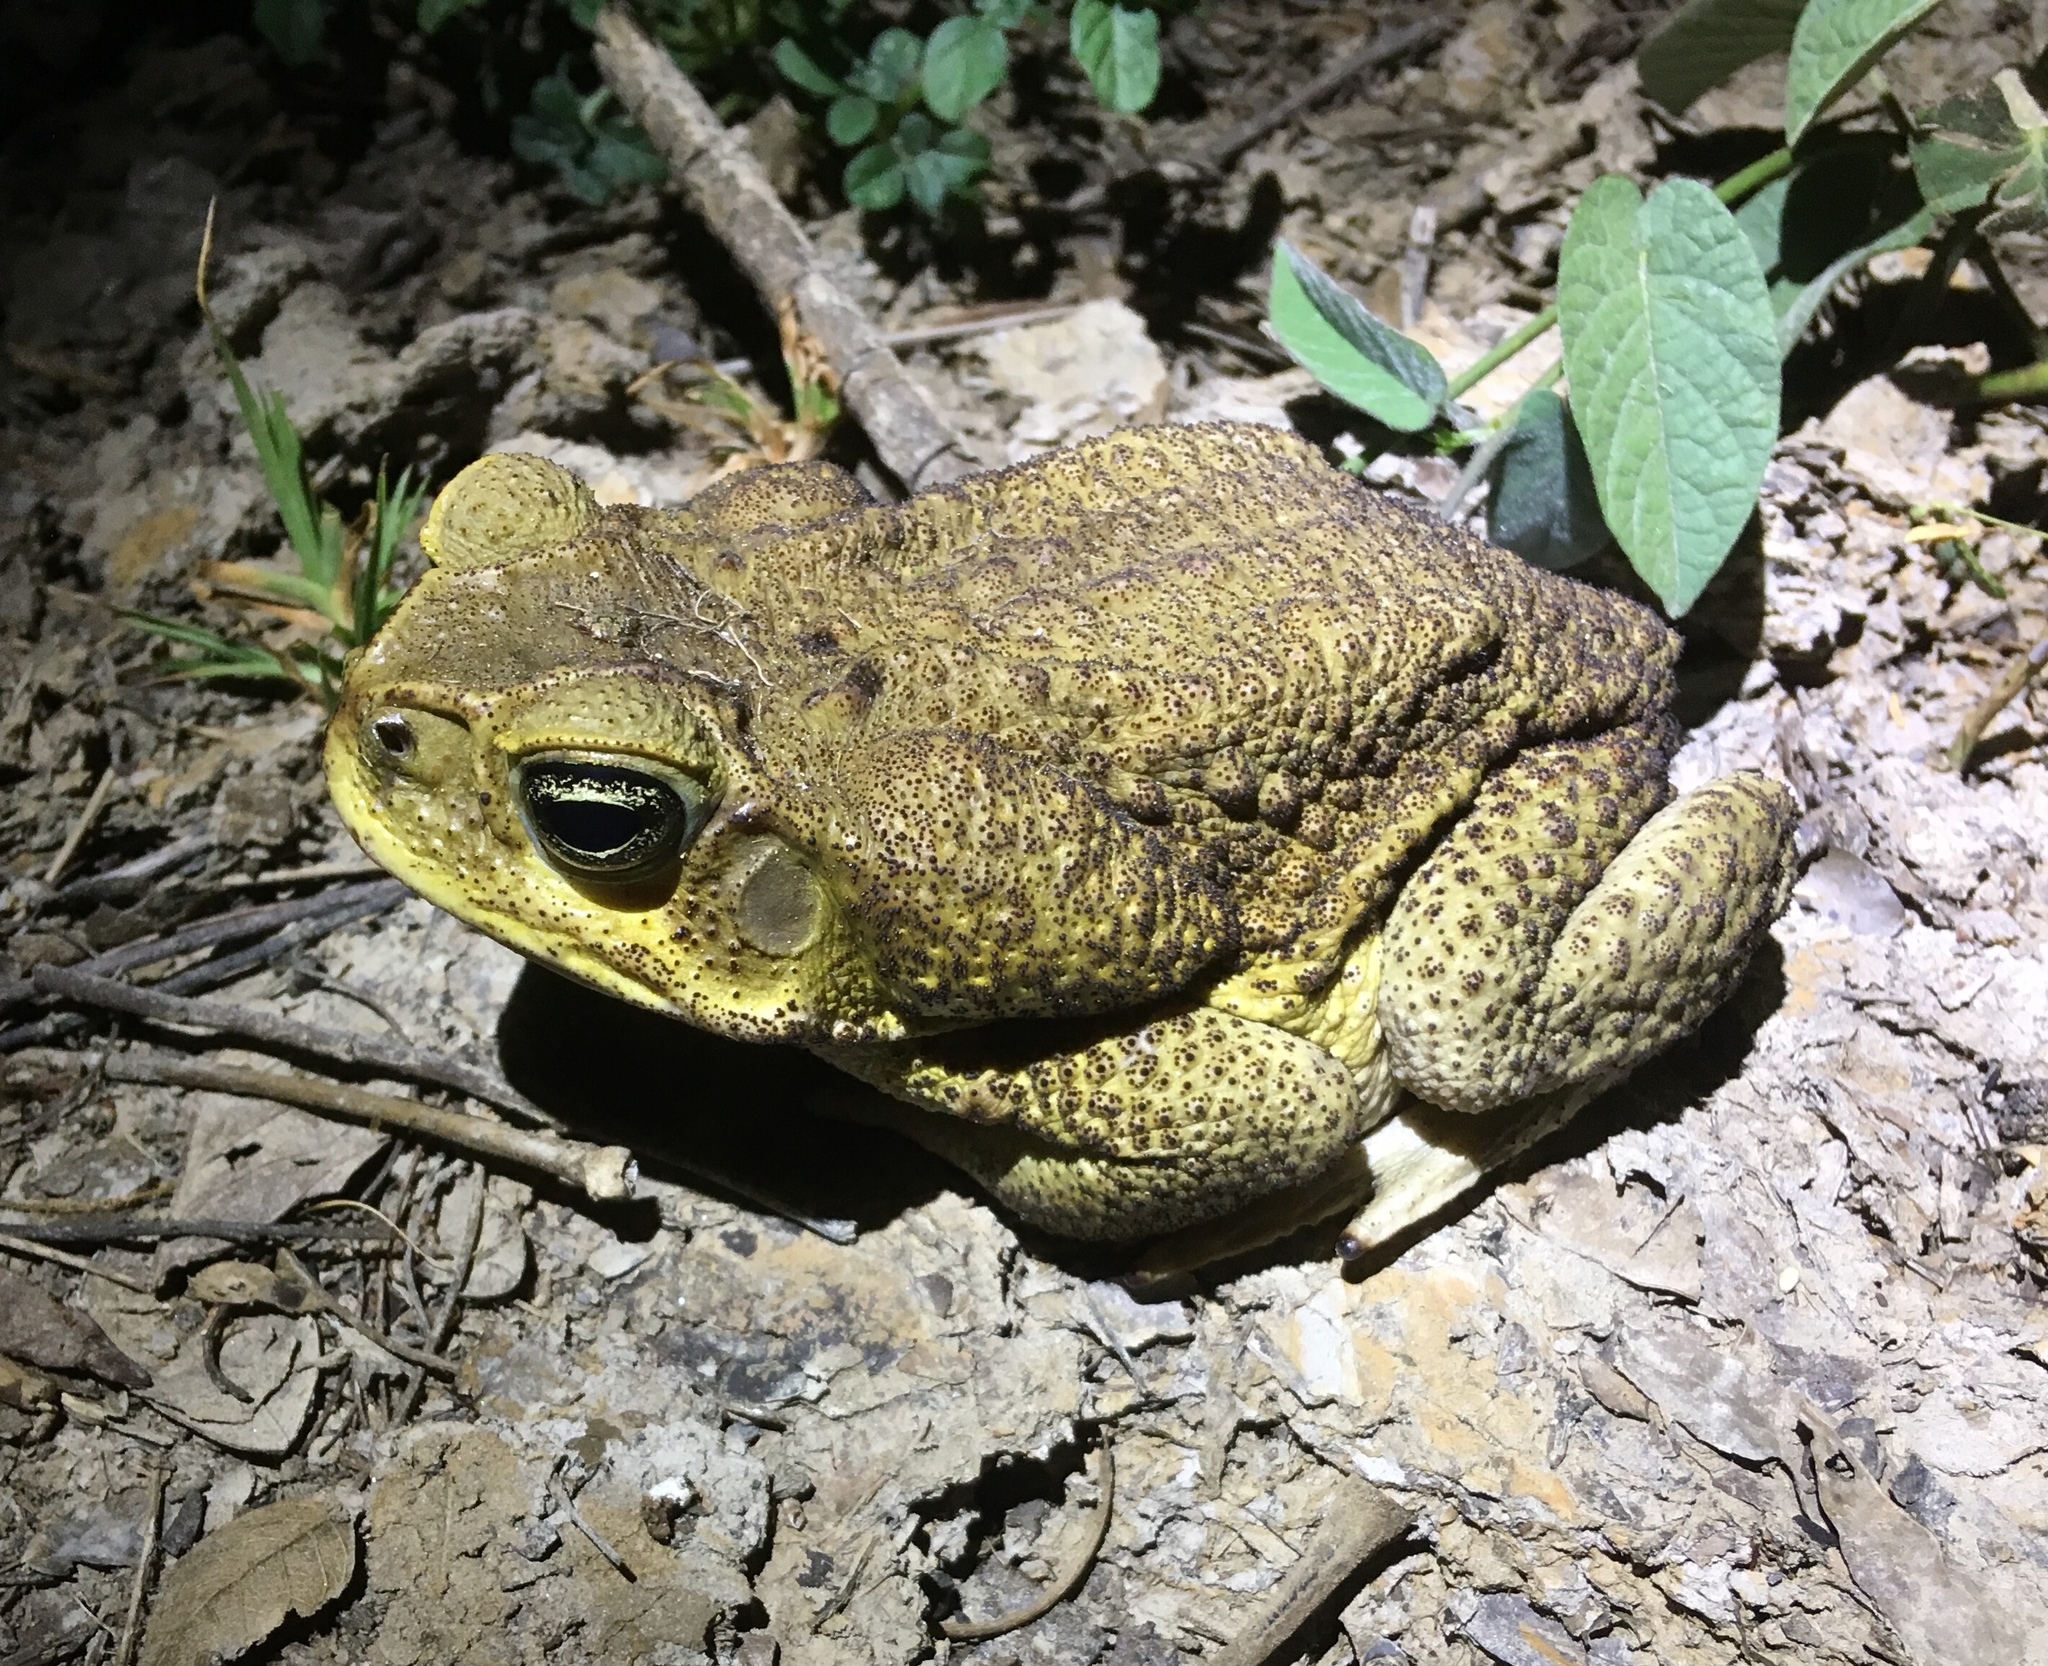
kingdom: Animalia
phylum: Chordata
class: Amphibia
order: Anura
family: Bufonidae
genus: Rhinella
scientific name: Rhinella horribilis
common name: Mesoamerican cane toad
